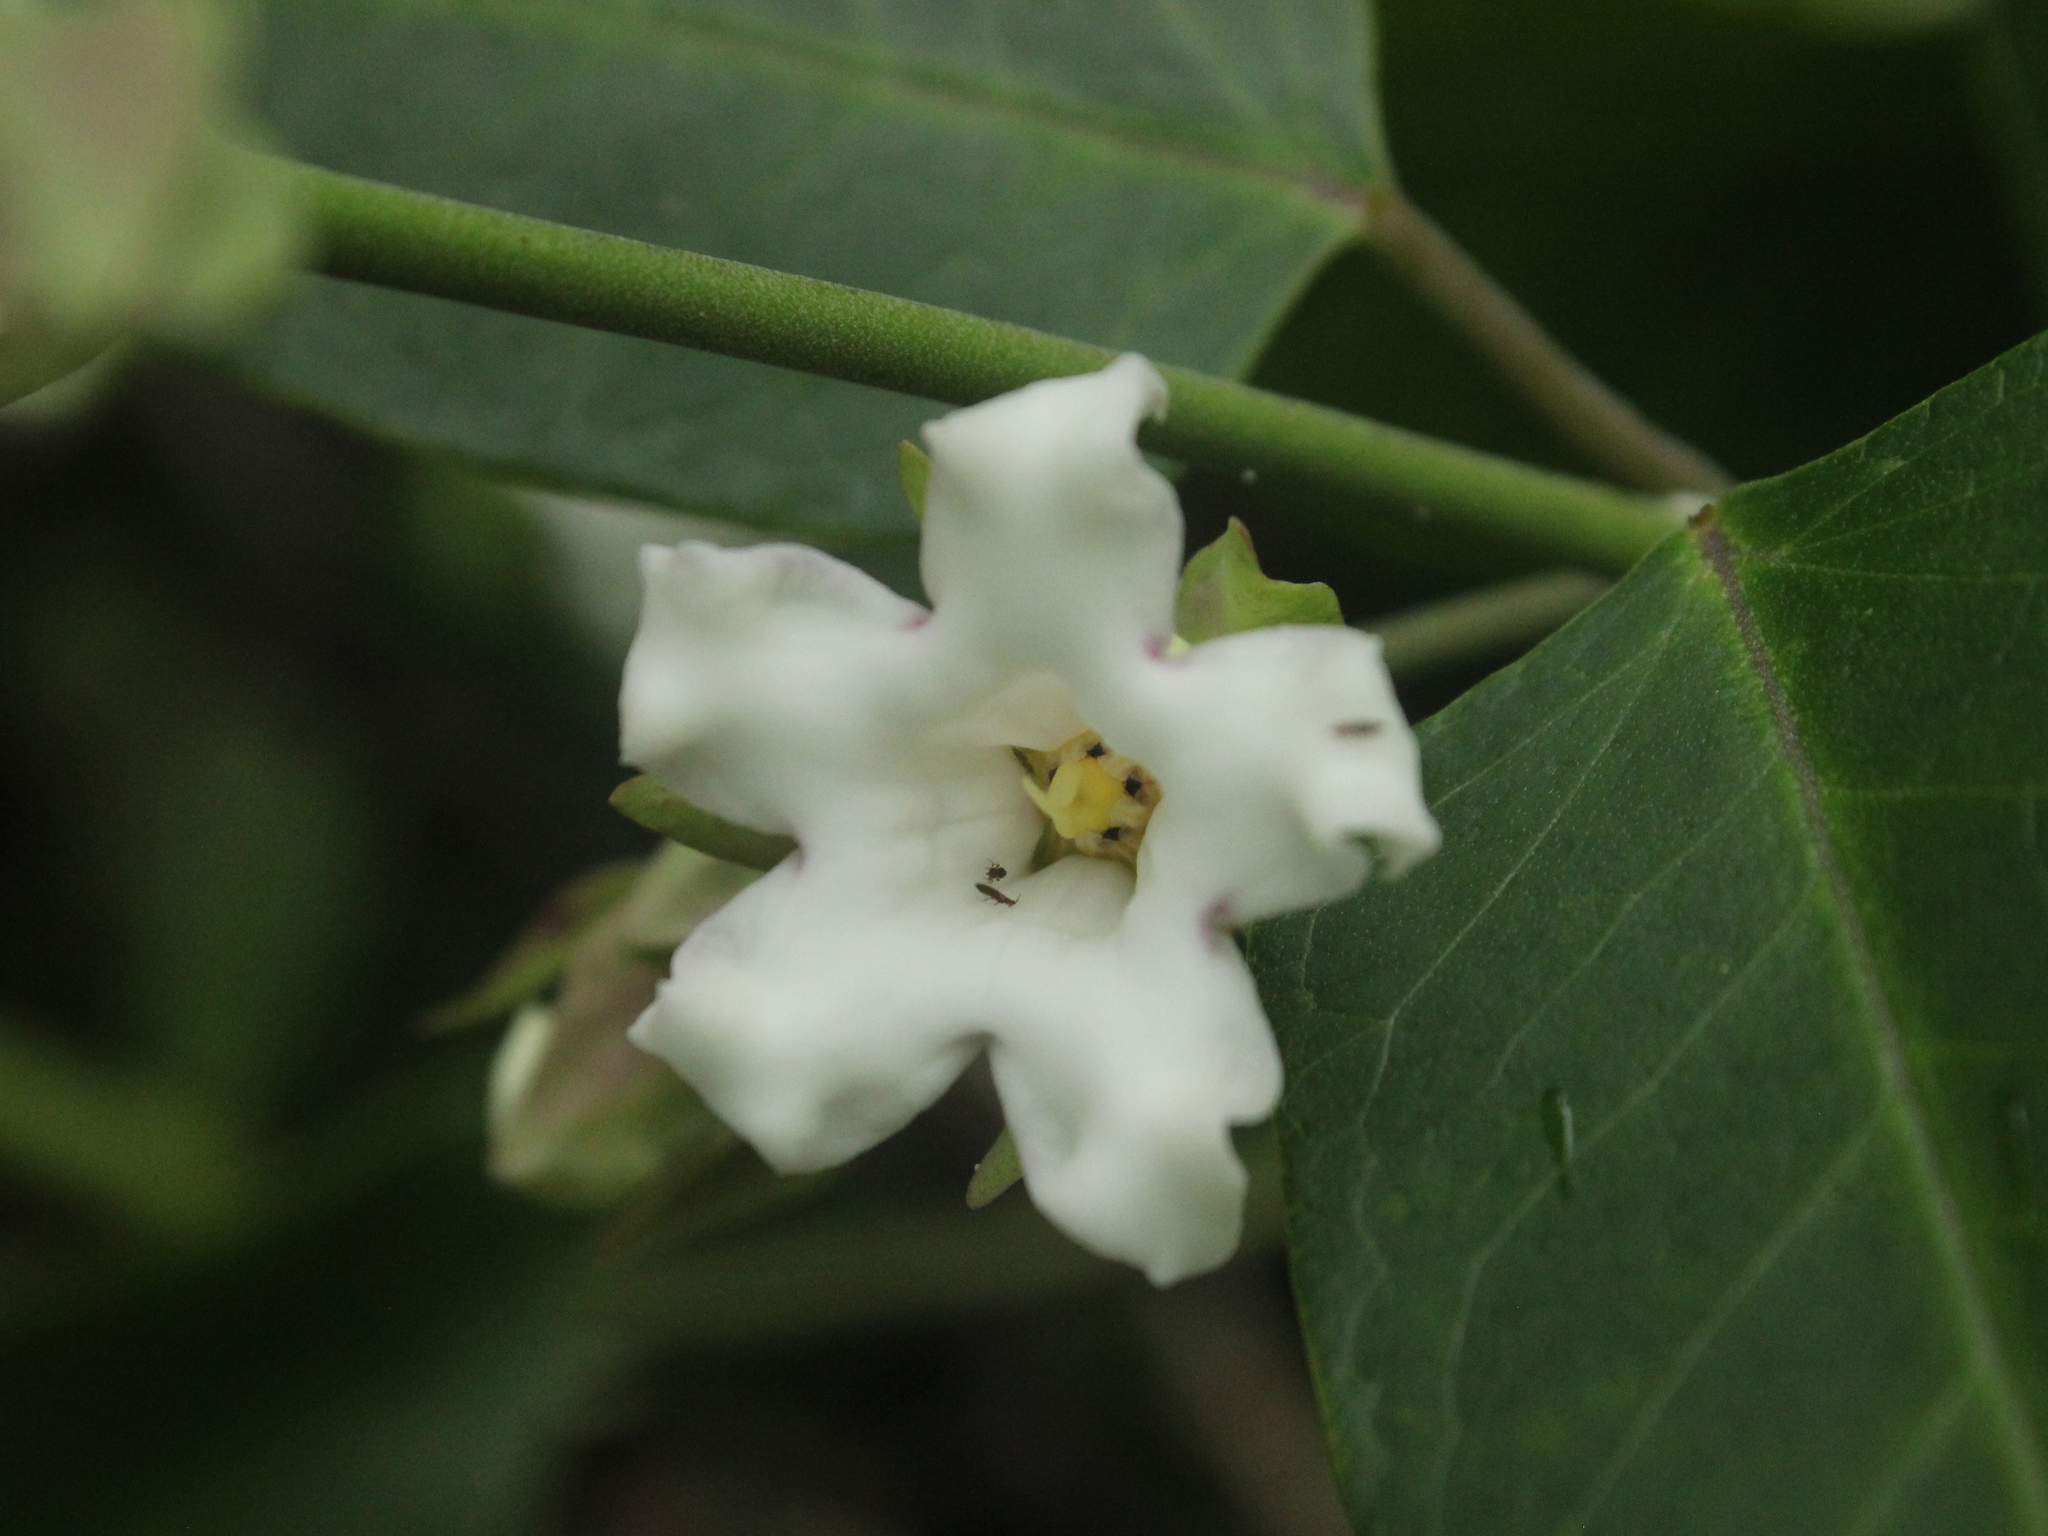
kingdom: Plantae
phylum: Tracheophyta
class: Magnoliopsida
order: Gentianales
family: Apocynaceae
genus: Araujia
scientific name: Araujia sericifera
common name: White bladderflower
